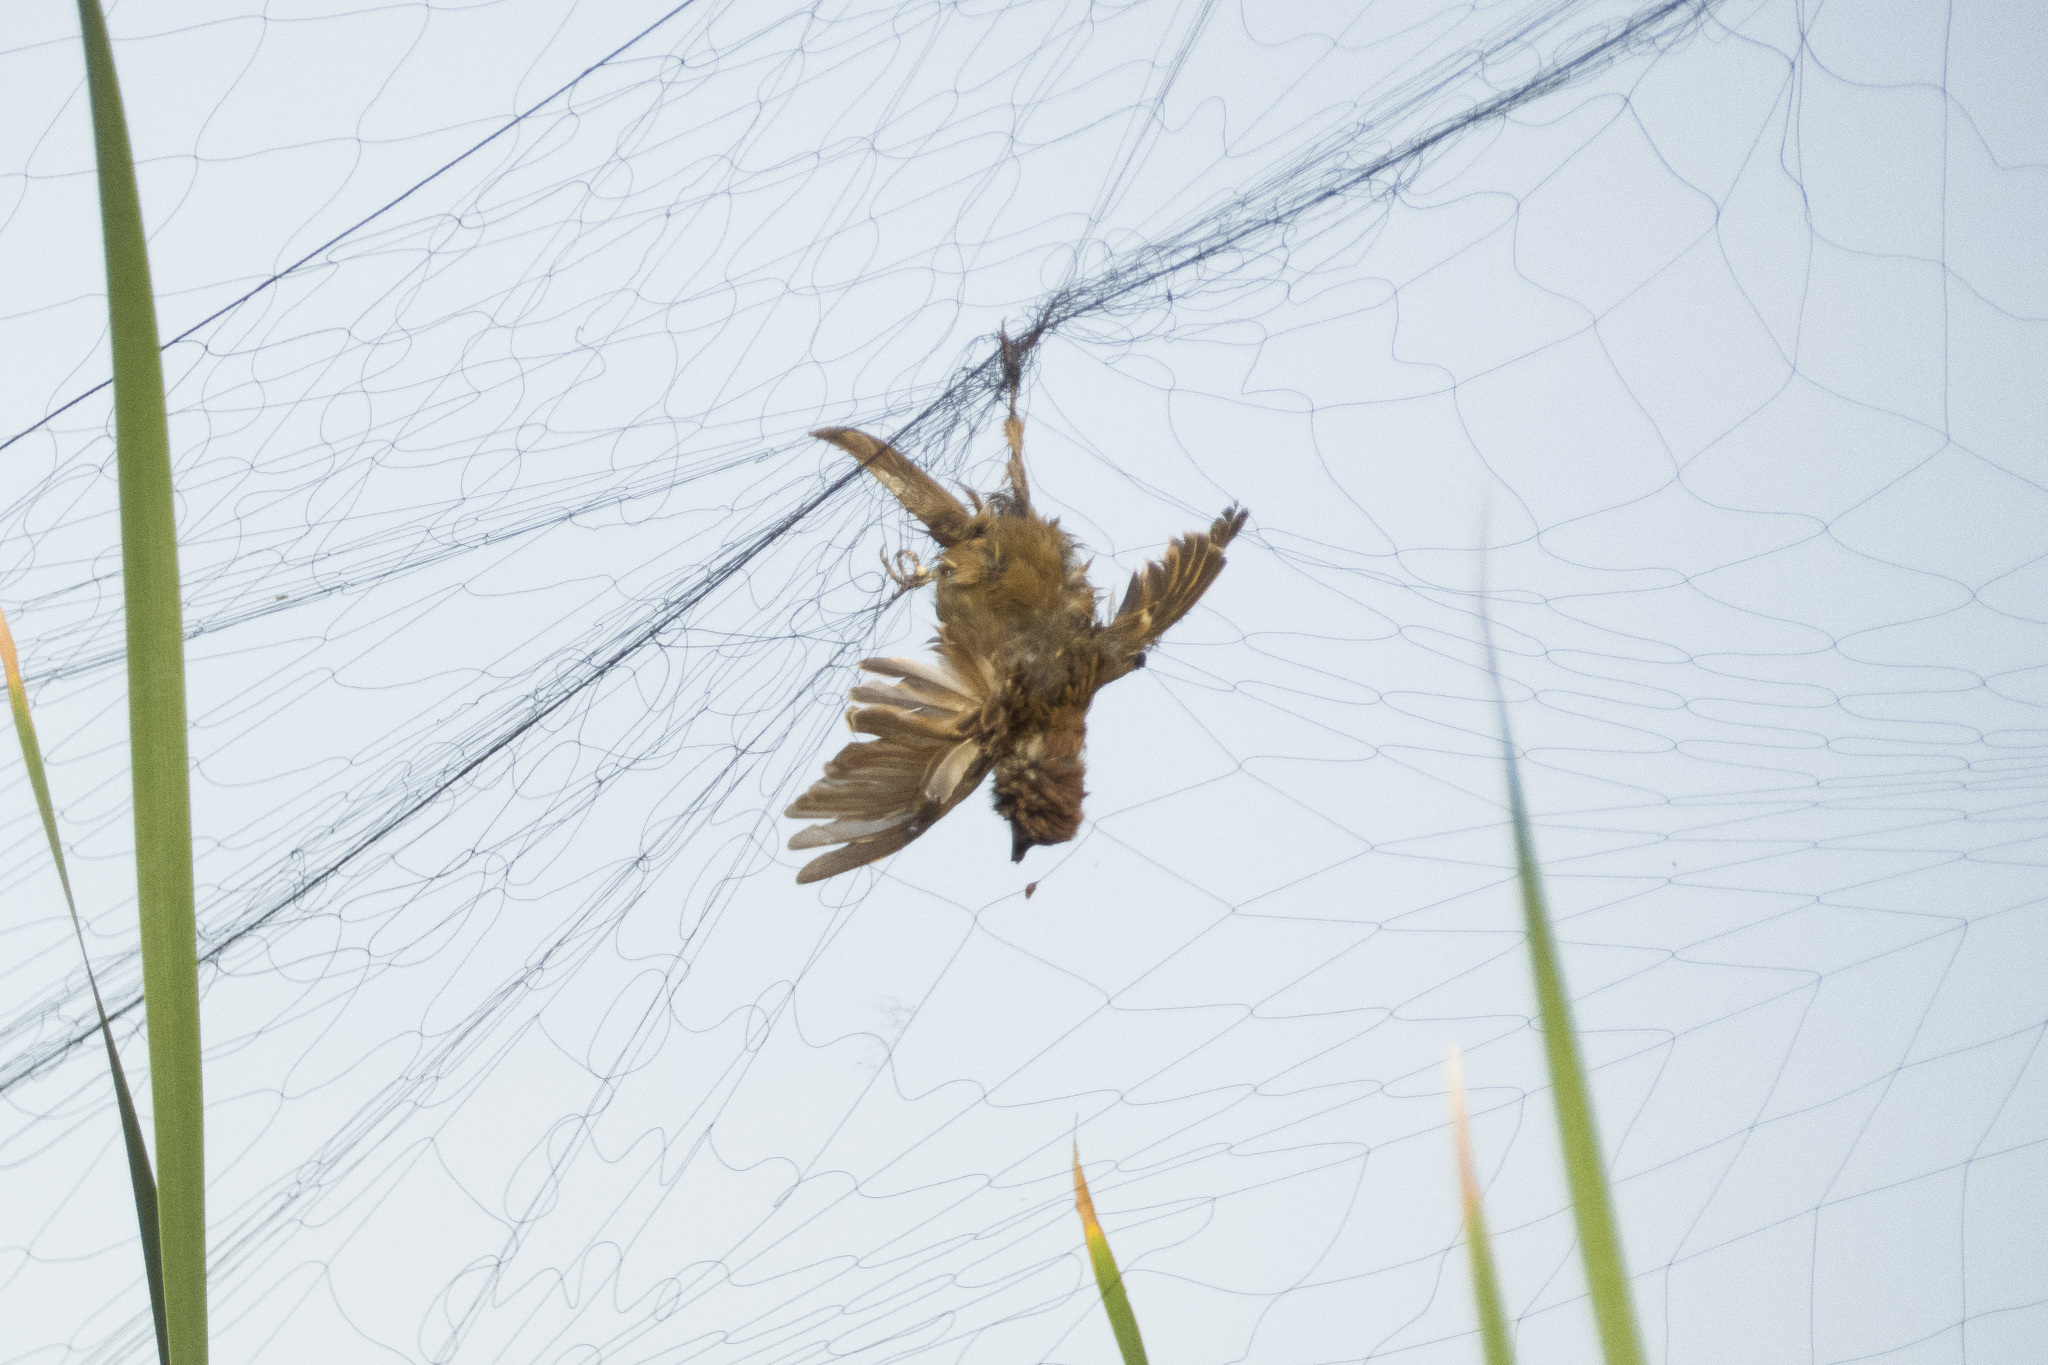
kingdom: Animalia
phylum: Chordata
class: Aves
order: Passeriformes
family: Passeridae
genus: Passer
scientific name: Passer montanus
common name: Eurasian tree sparrow
